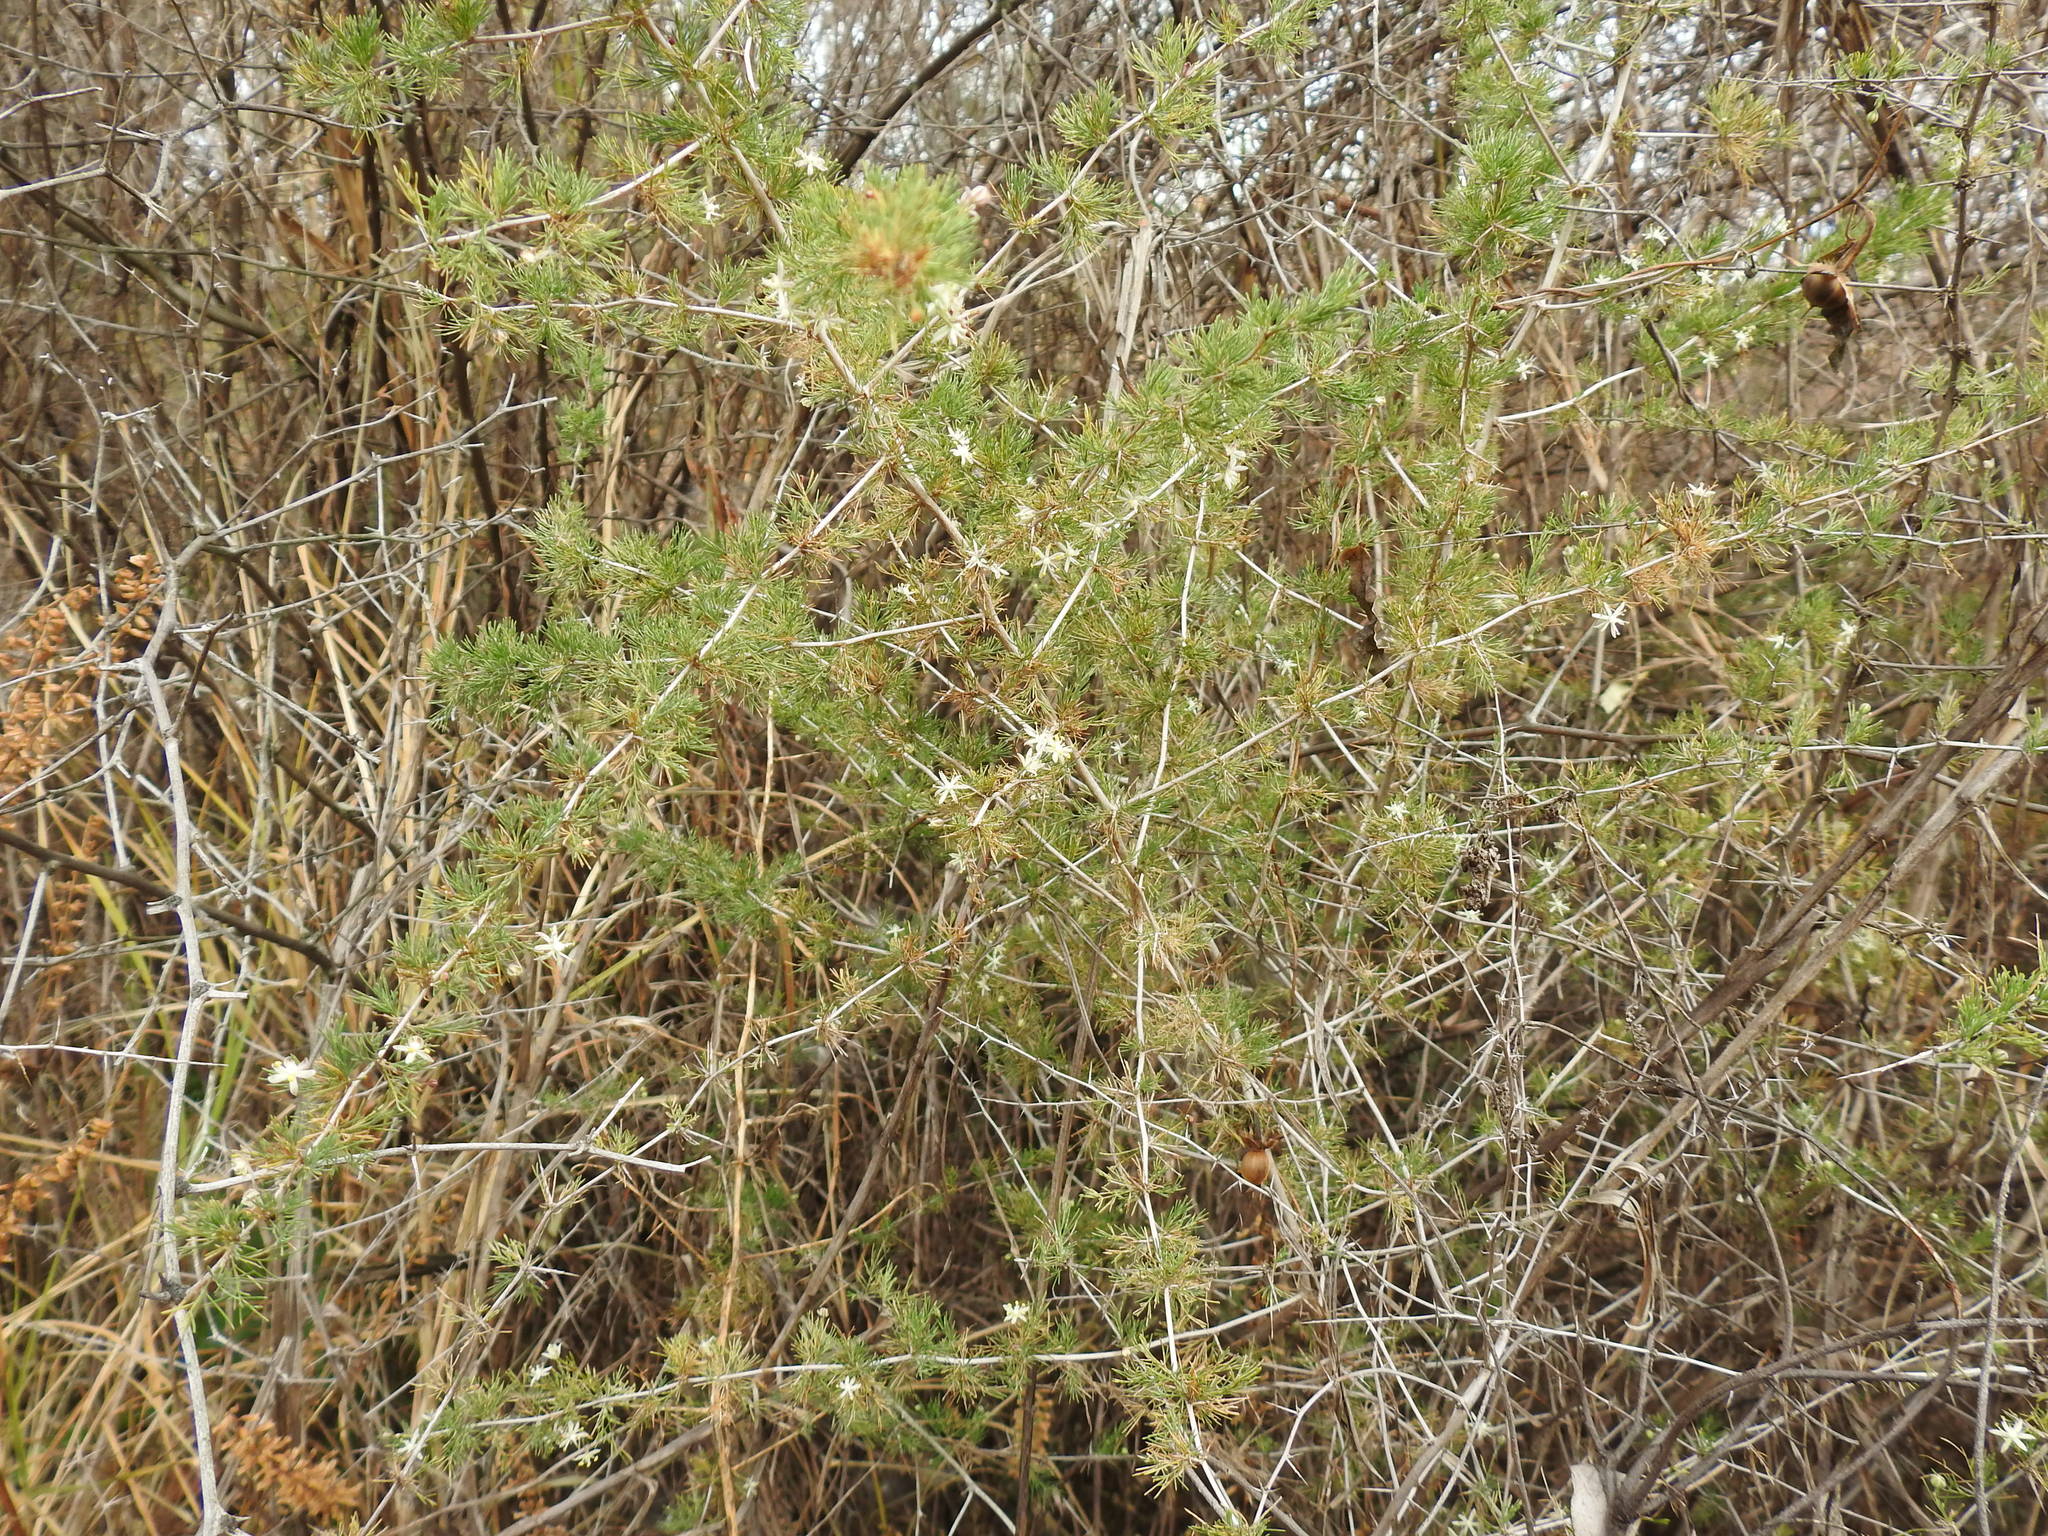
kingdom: Plantae
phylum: Tracheophyta
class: Liliopsida
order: Asparagales
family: Asparagaceae
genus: Asparagus
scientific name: Asparagus suaveolens
